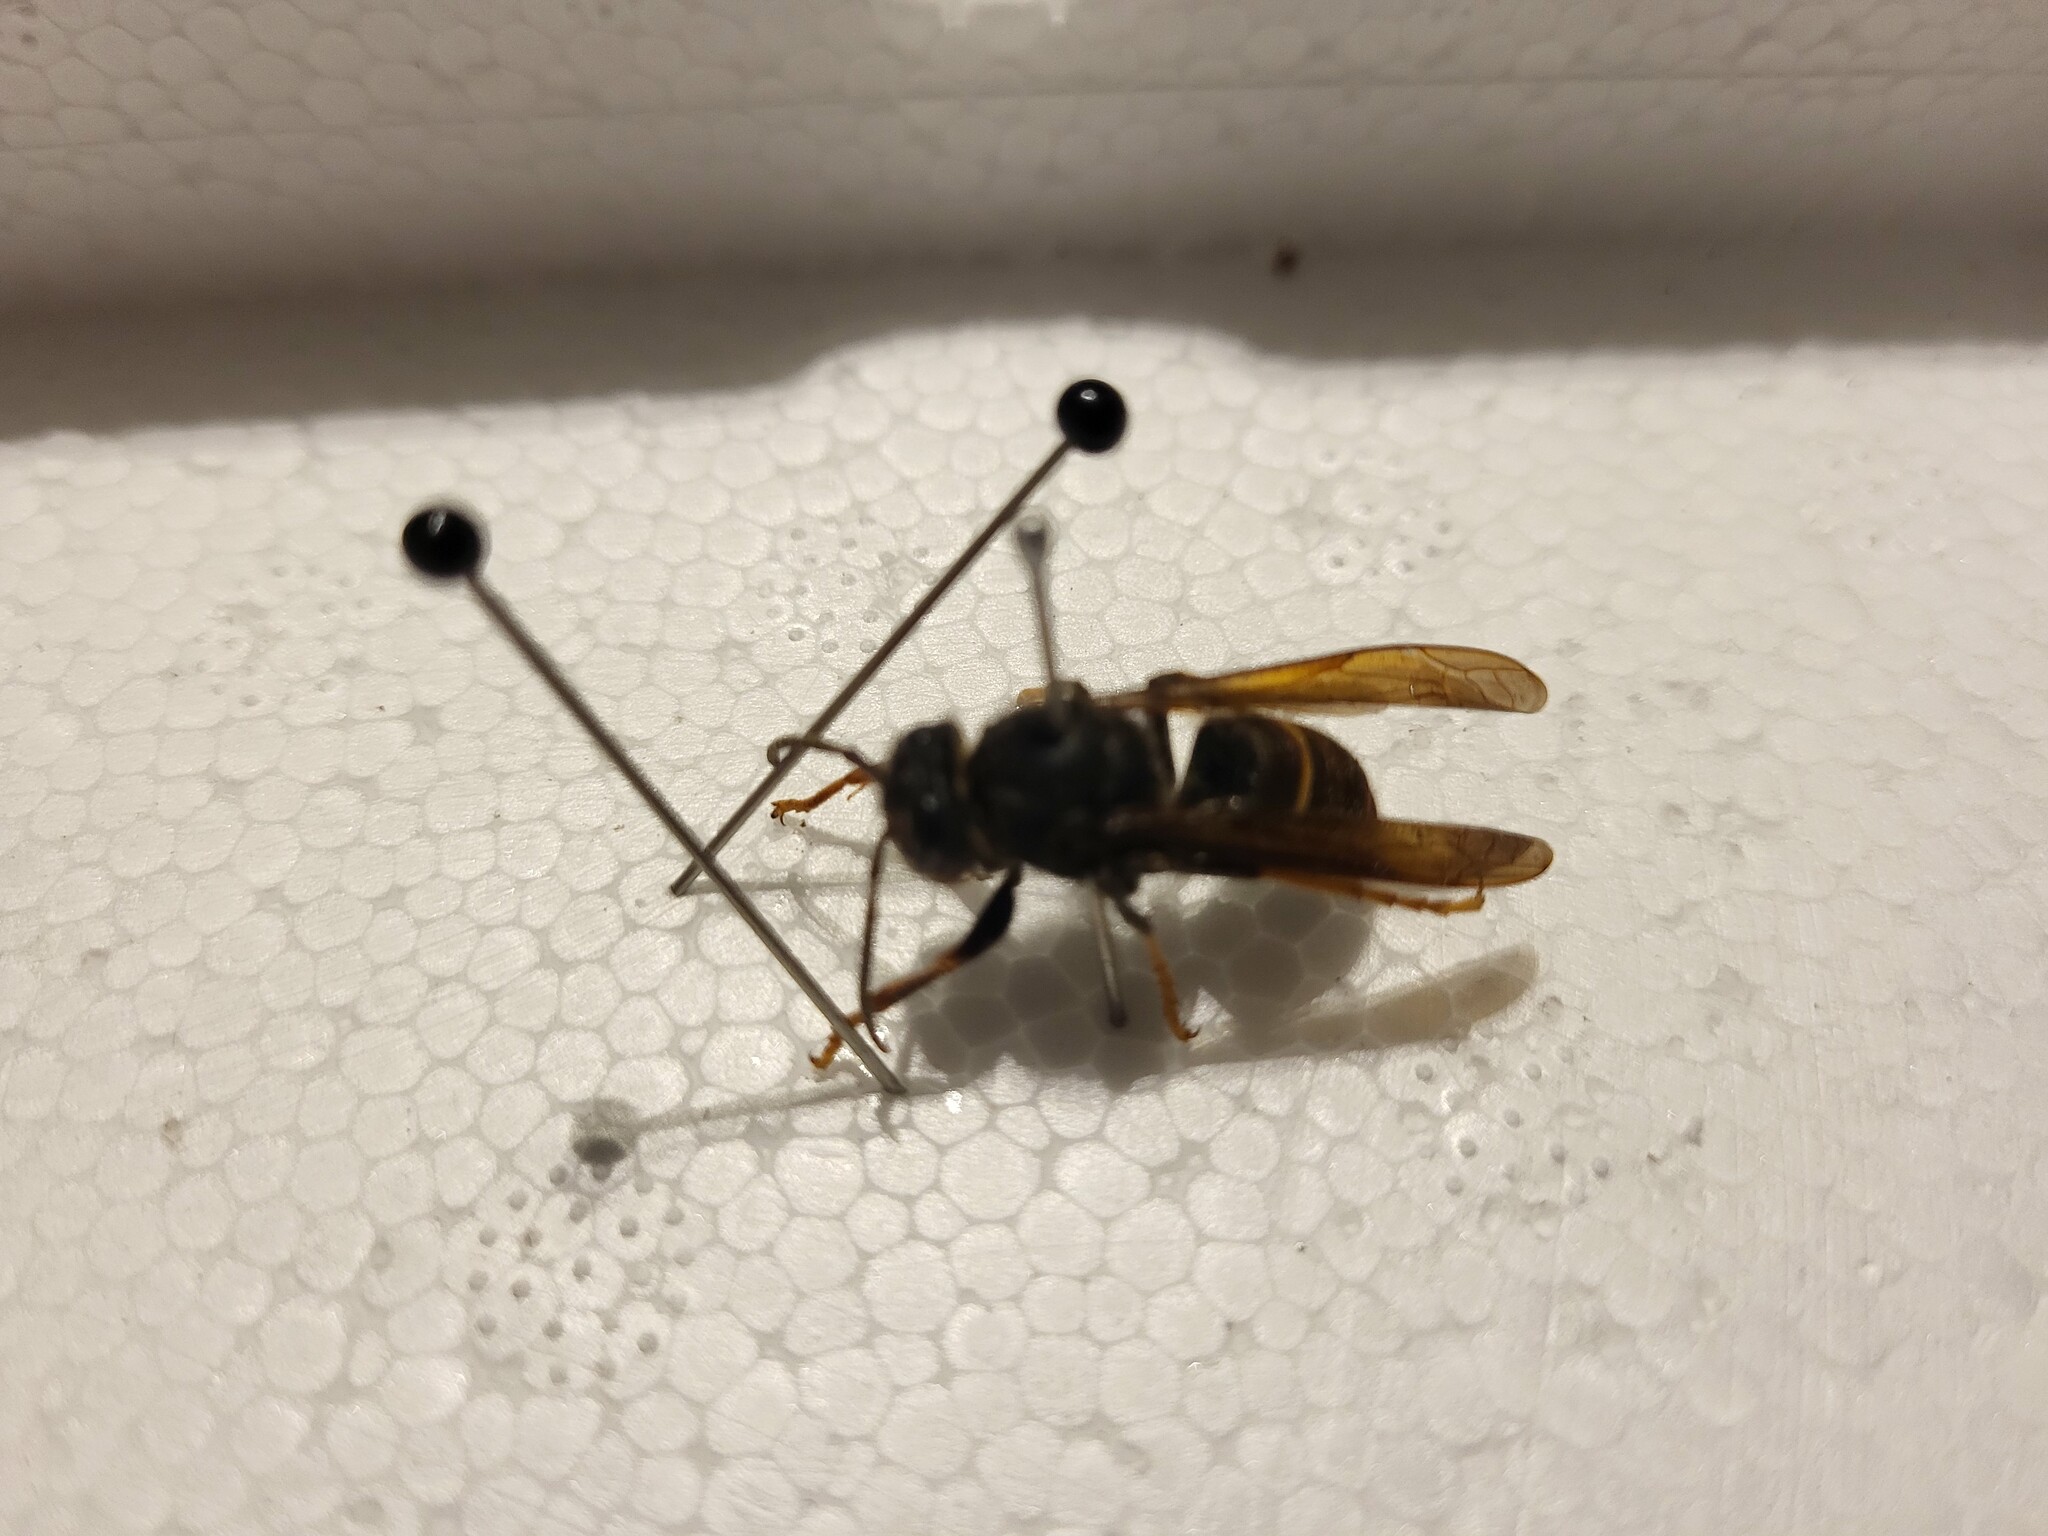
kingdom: Animalia
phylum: Arthropoda
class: Insecta
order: Hymenoptera
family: Vespidae
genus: Vespa
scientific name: Vespa velutina
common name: Asian hornet
